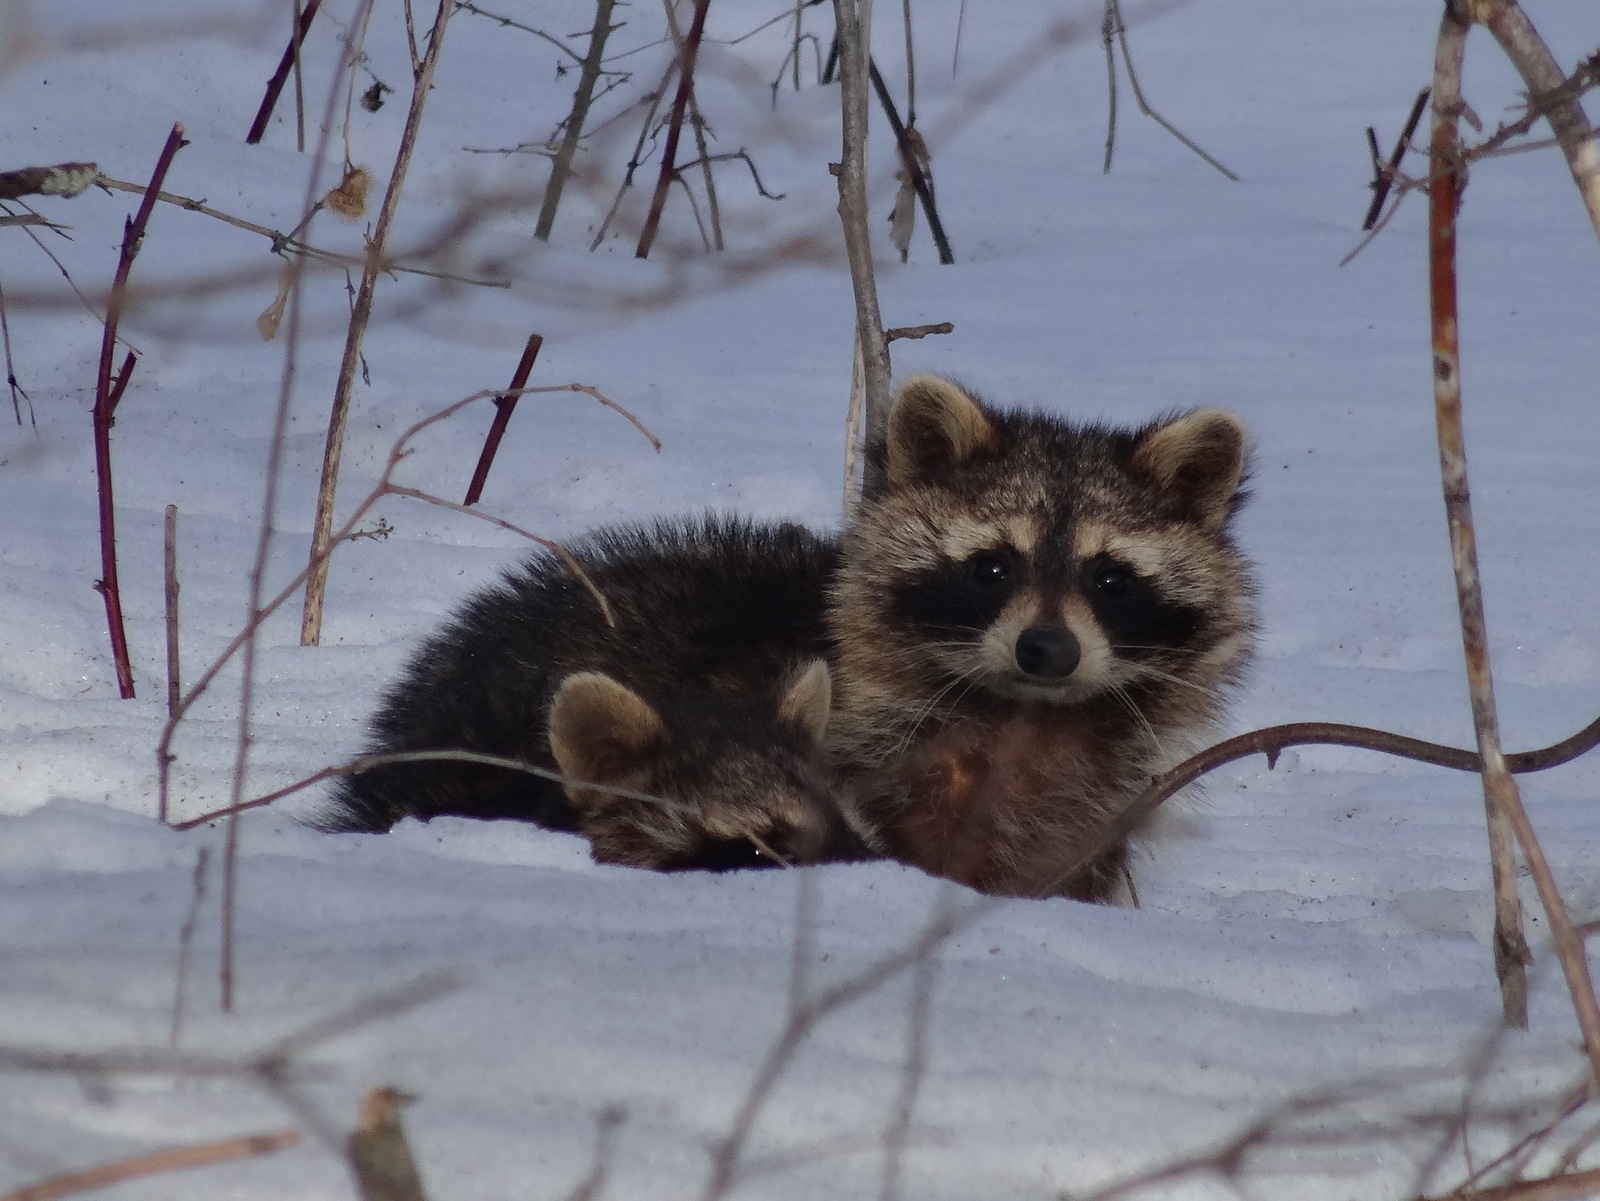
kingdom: Animalia
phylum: Chordata
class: Mammalia
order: Carnivora
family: Procyonidae
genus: Procyon
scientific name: Procyon lotor
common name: Raccoon
